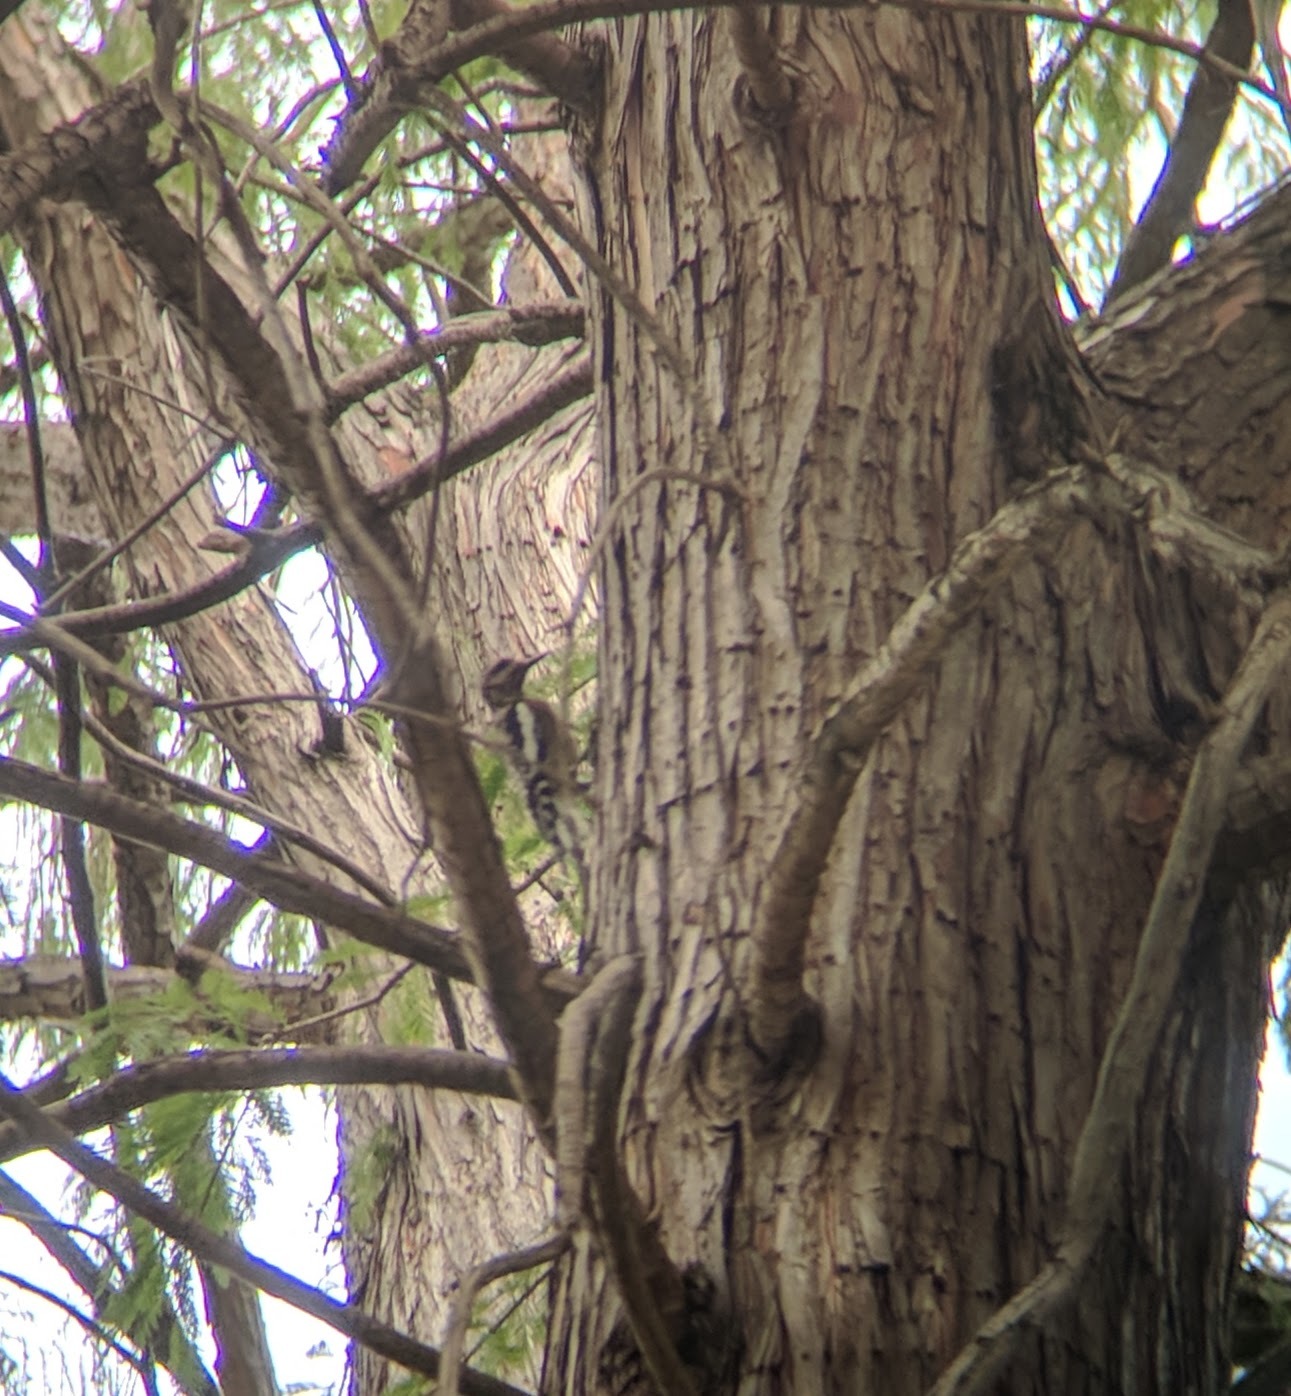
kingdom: Animalia
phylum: Chordata
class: Aves
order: Piciformes
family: Picidae
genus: Sphyrapicus
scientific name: Sphyrapicus
